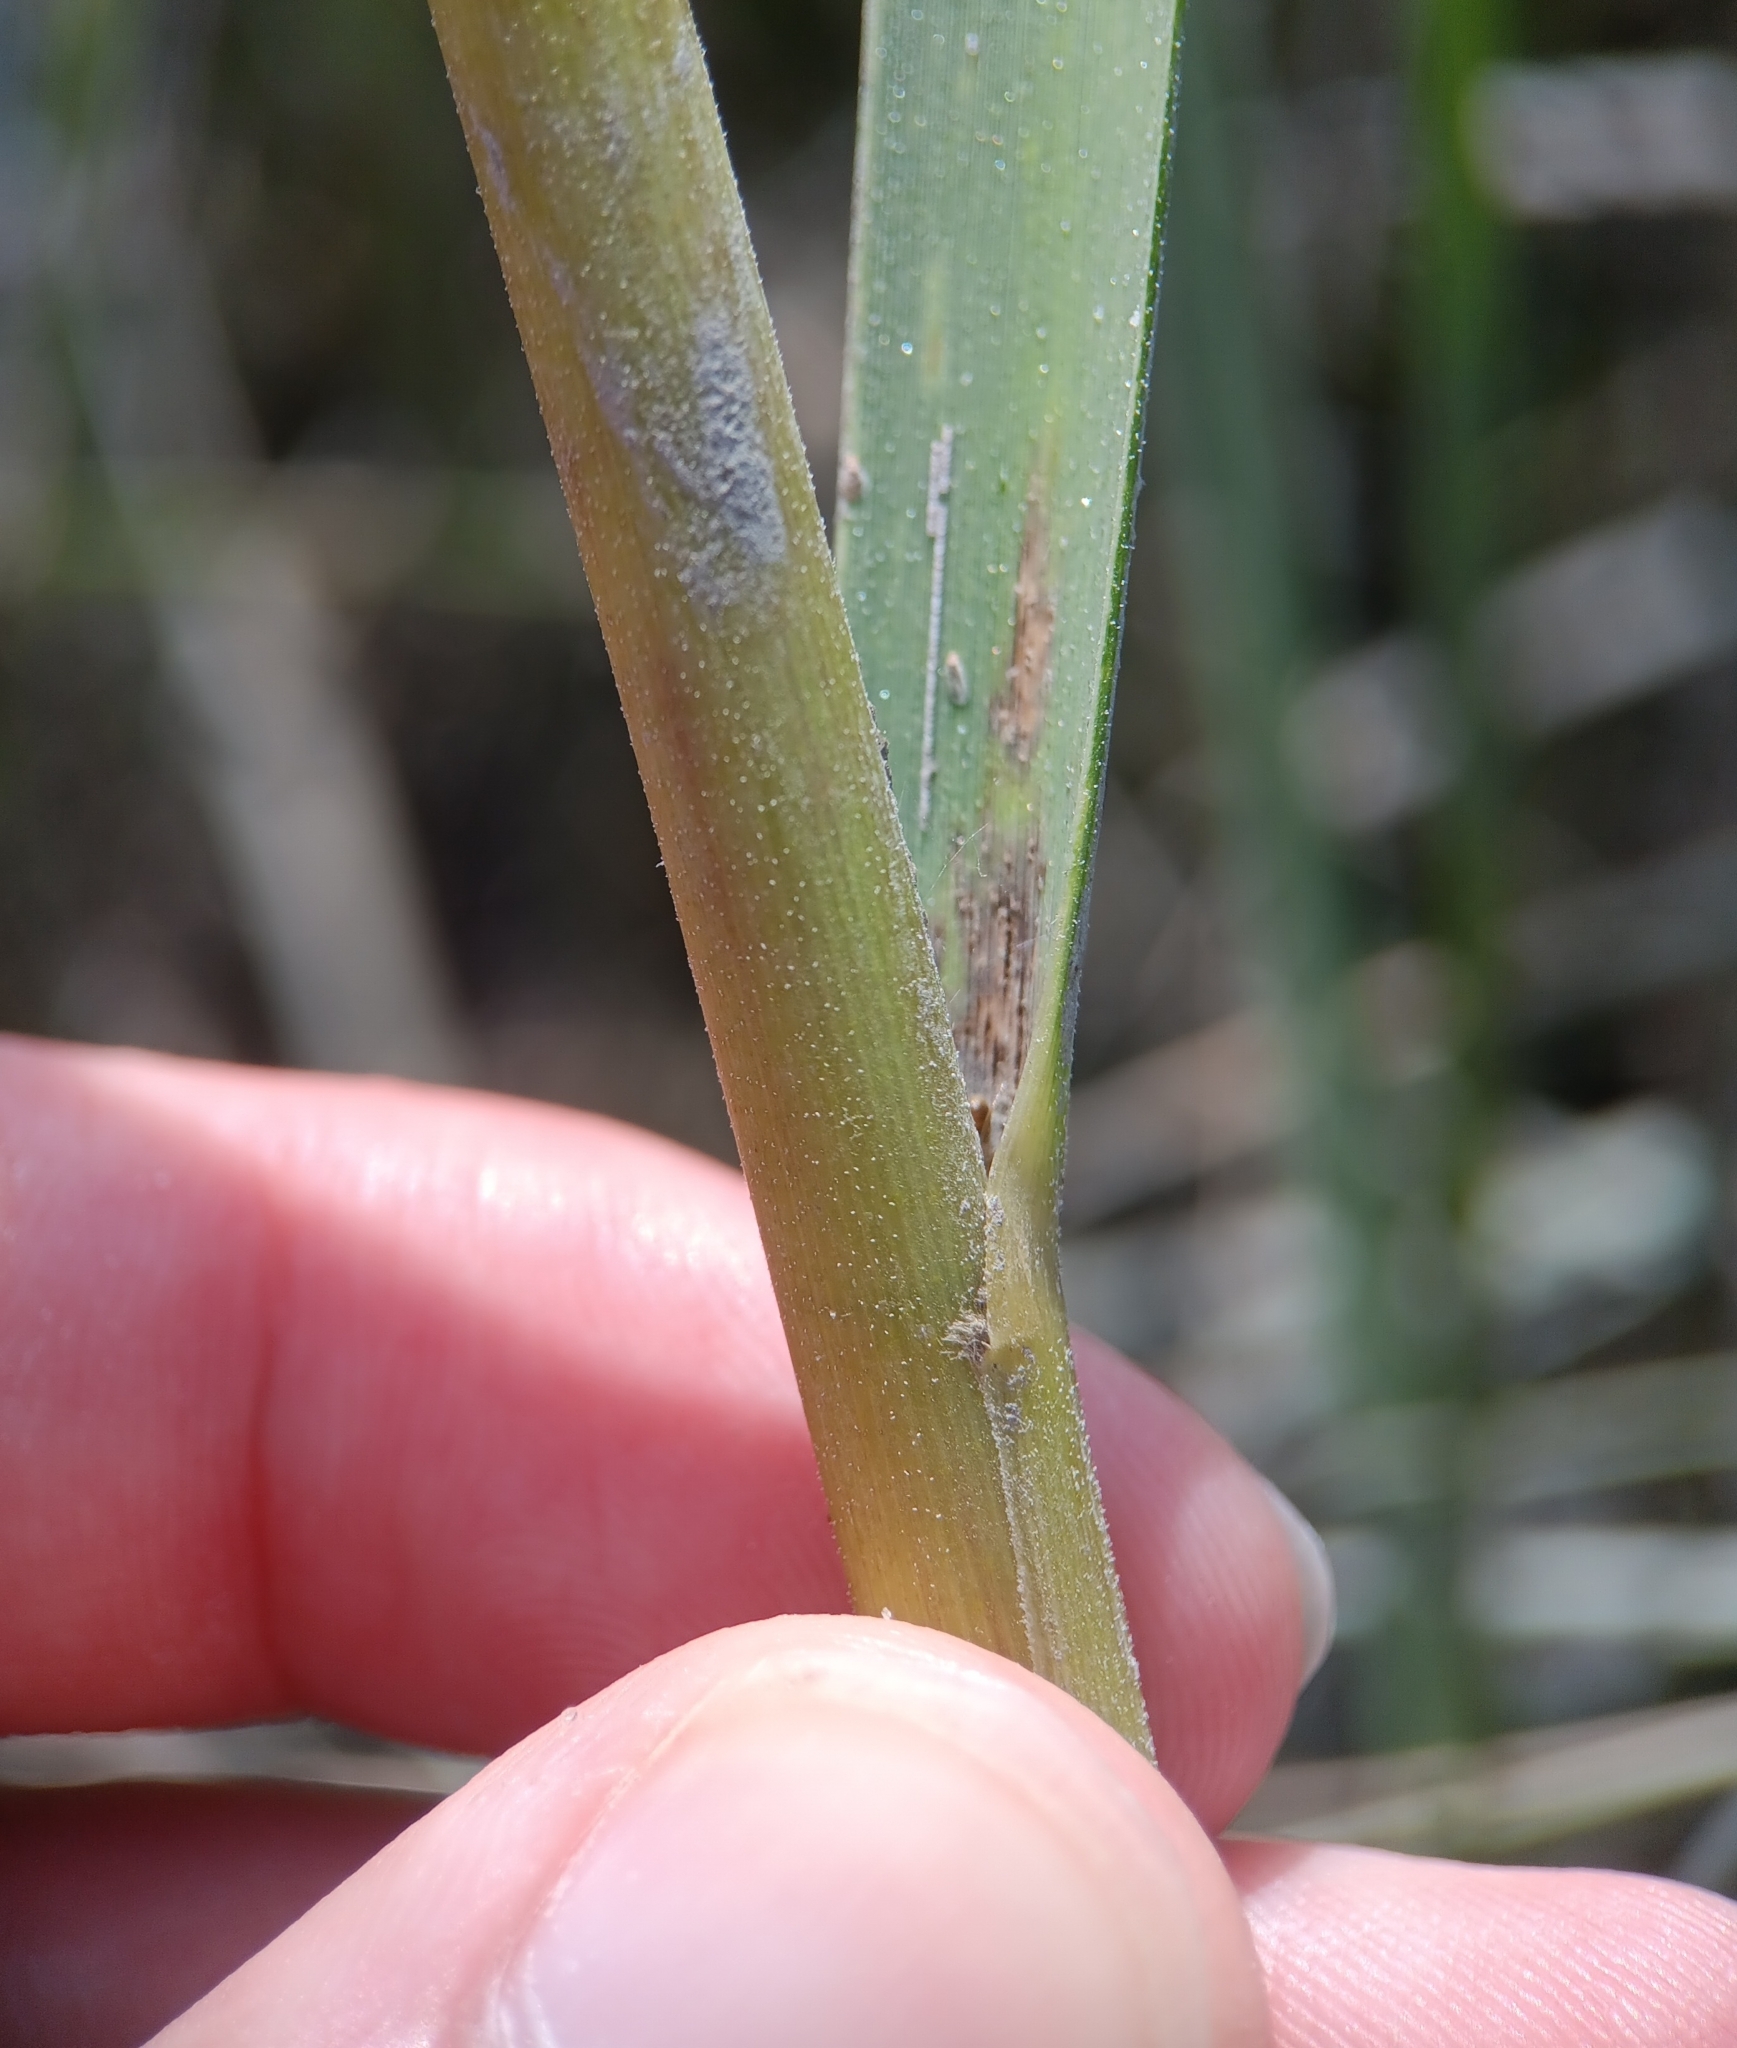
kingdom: Plantae
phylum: Tracheophyta
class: Liliopsida
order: Poales
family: Poaceae
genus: Sporobolus
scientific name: Sporobolus alterniflorus
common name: Atlantic cordgrass
